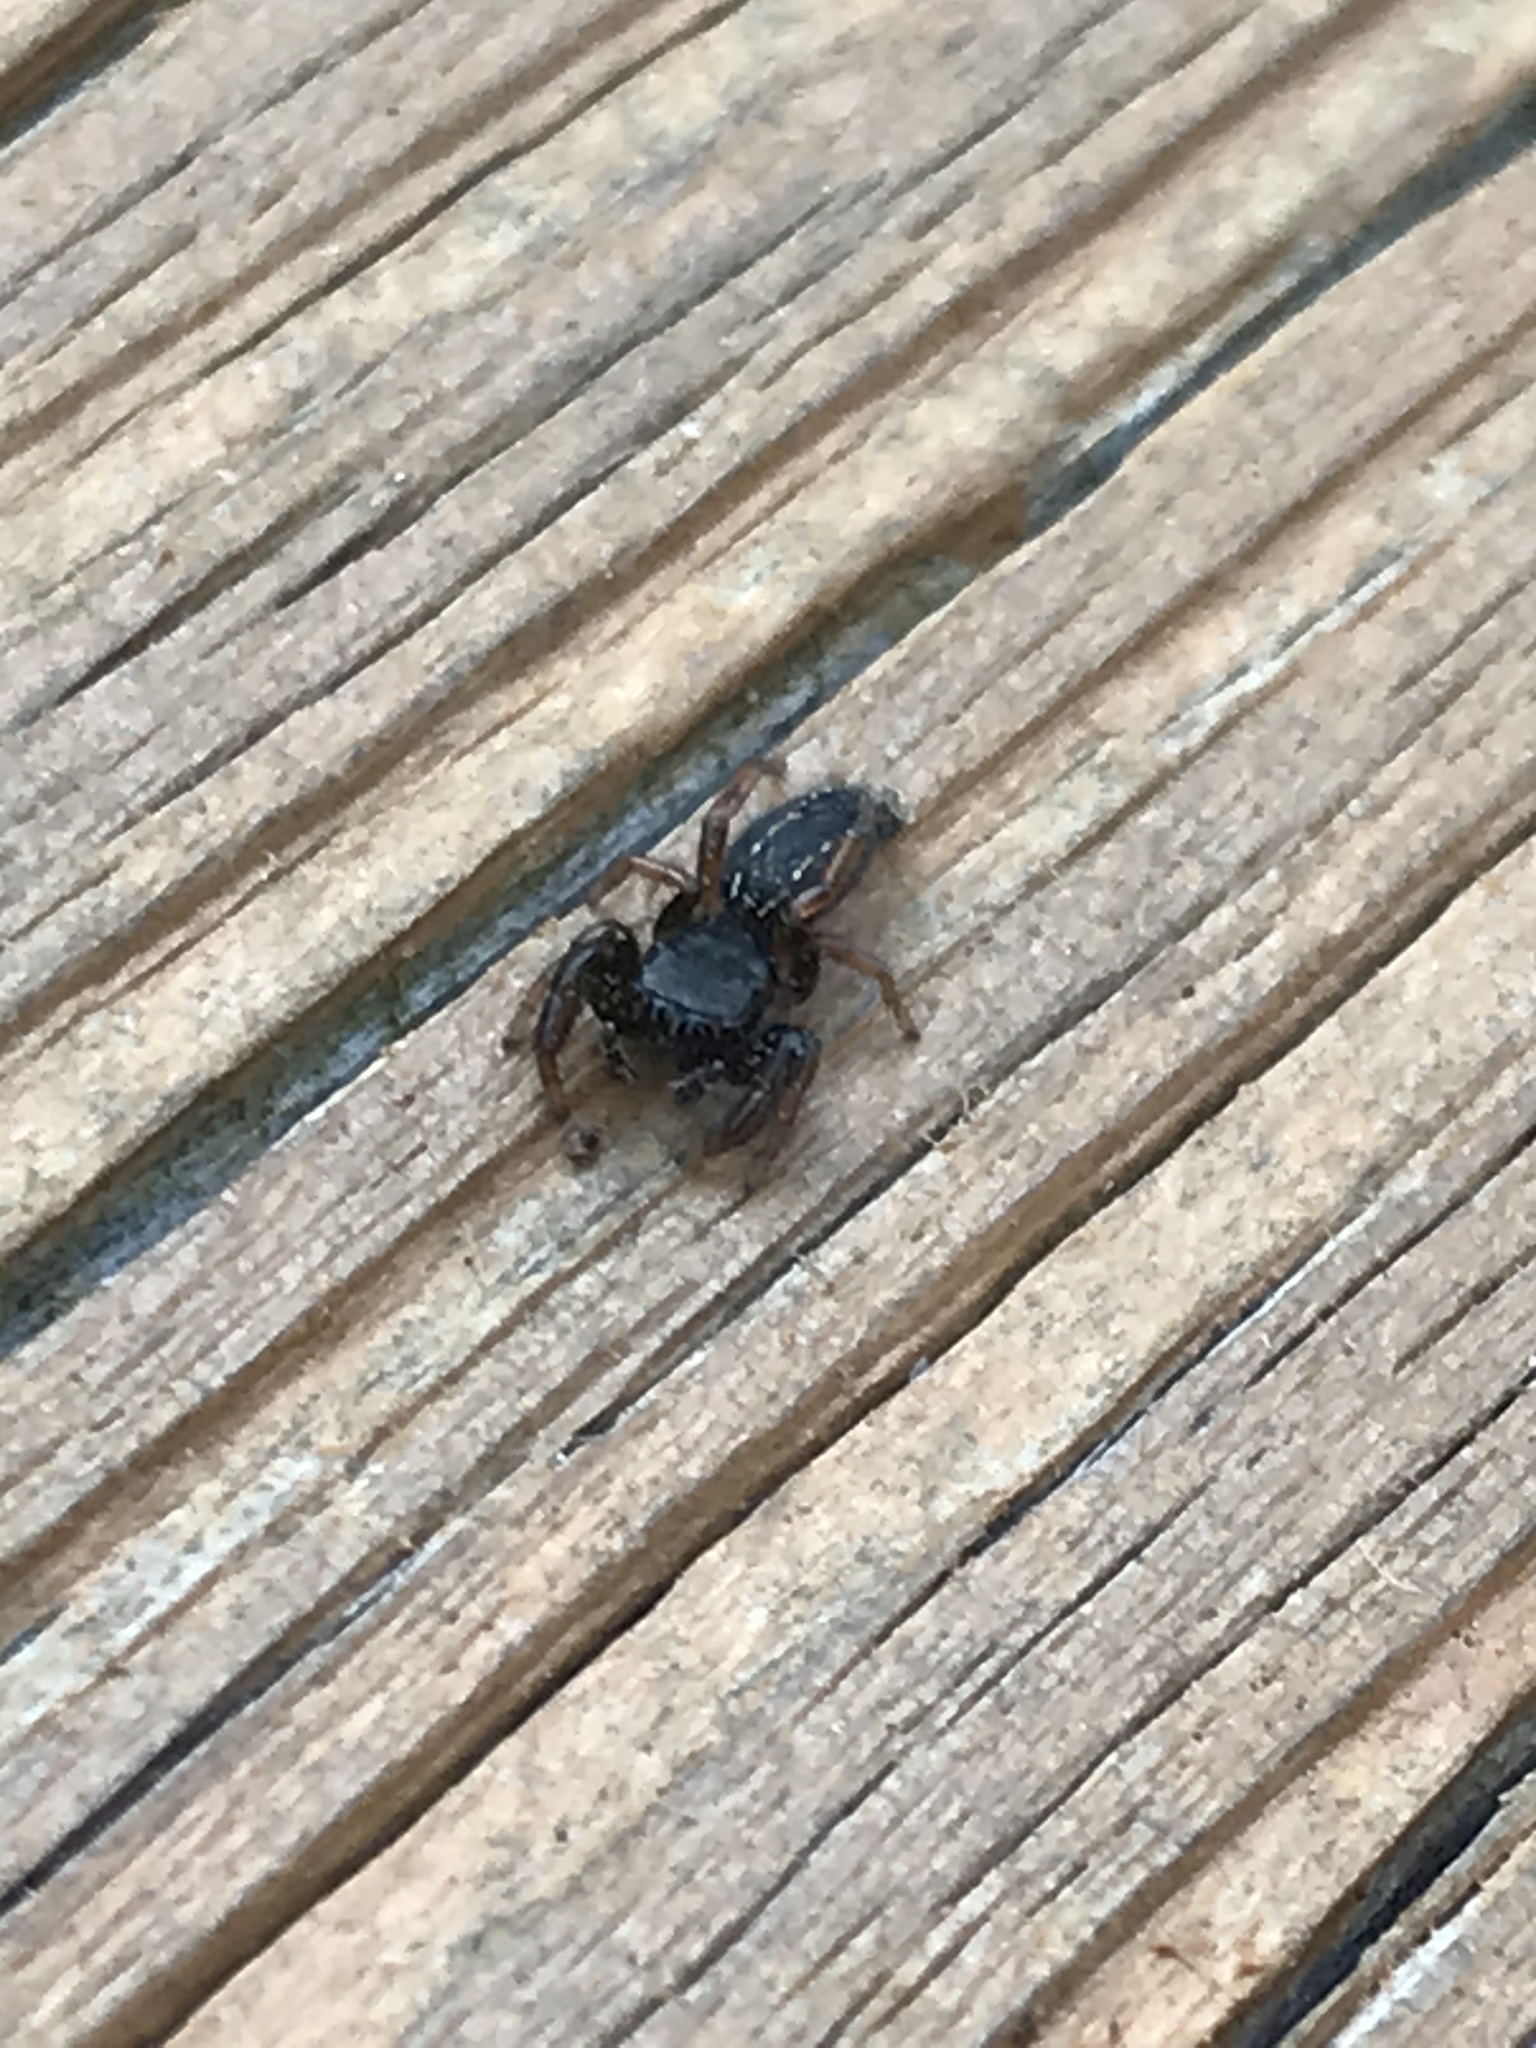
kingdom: Animalia
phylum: Arthropoda
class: Arachnida
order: Araneae
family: Salticidae
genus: Metacyrba
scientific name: Metacyrba taeniola
